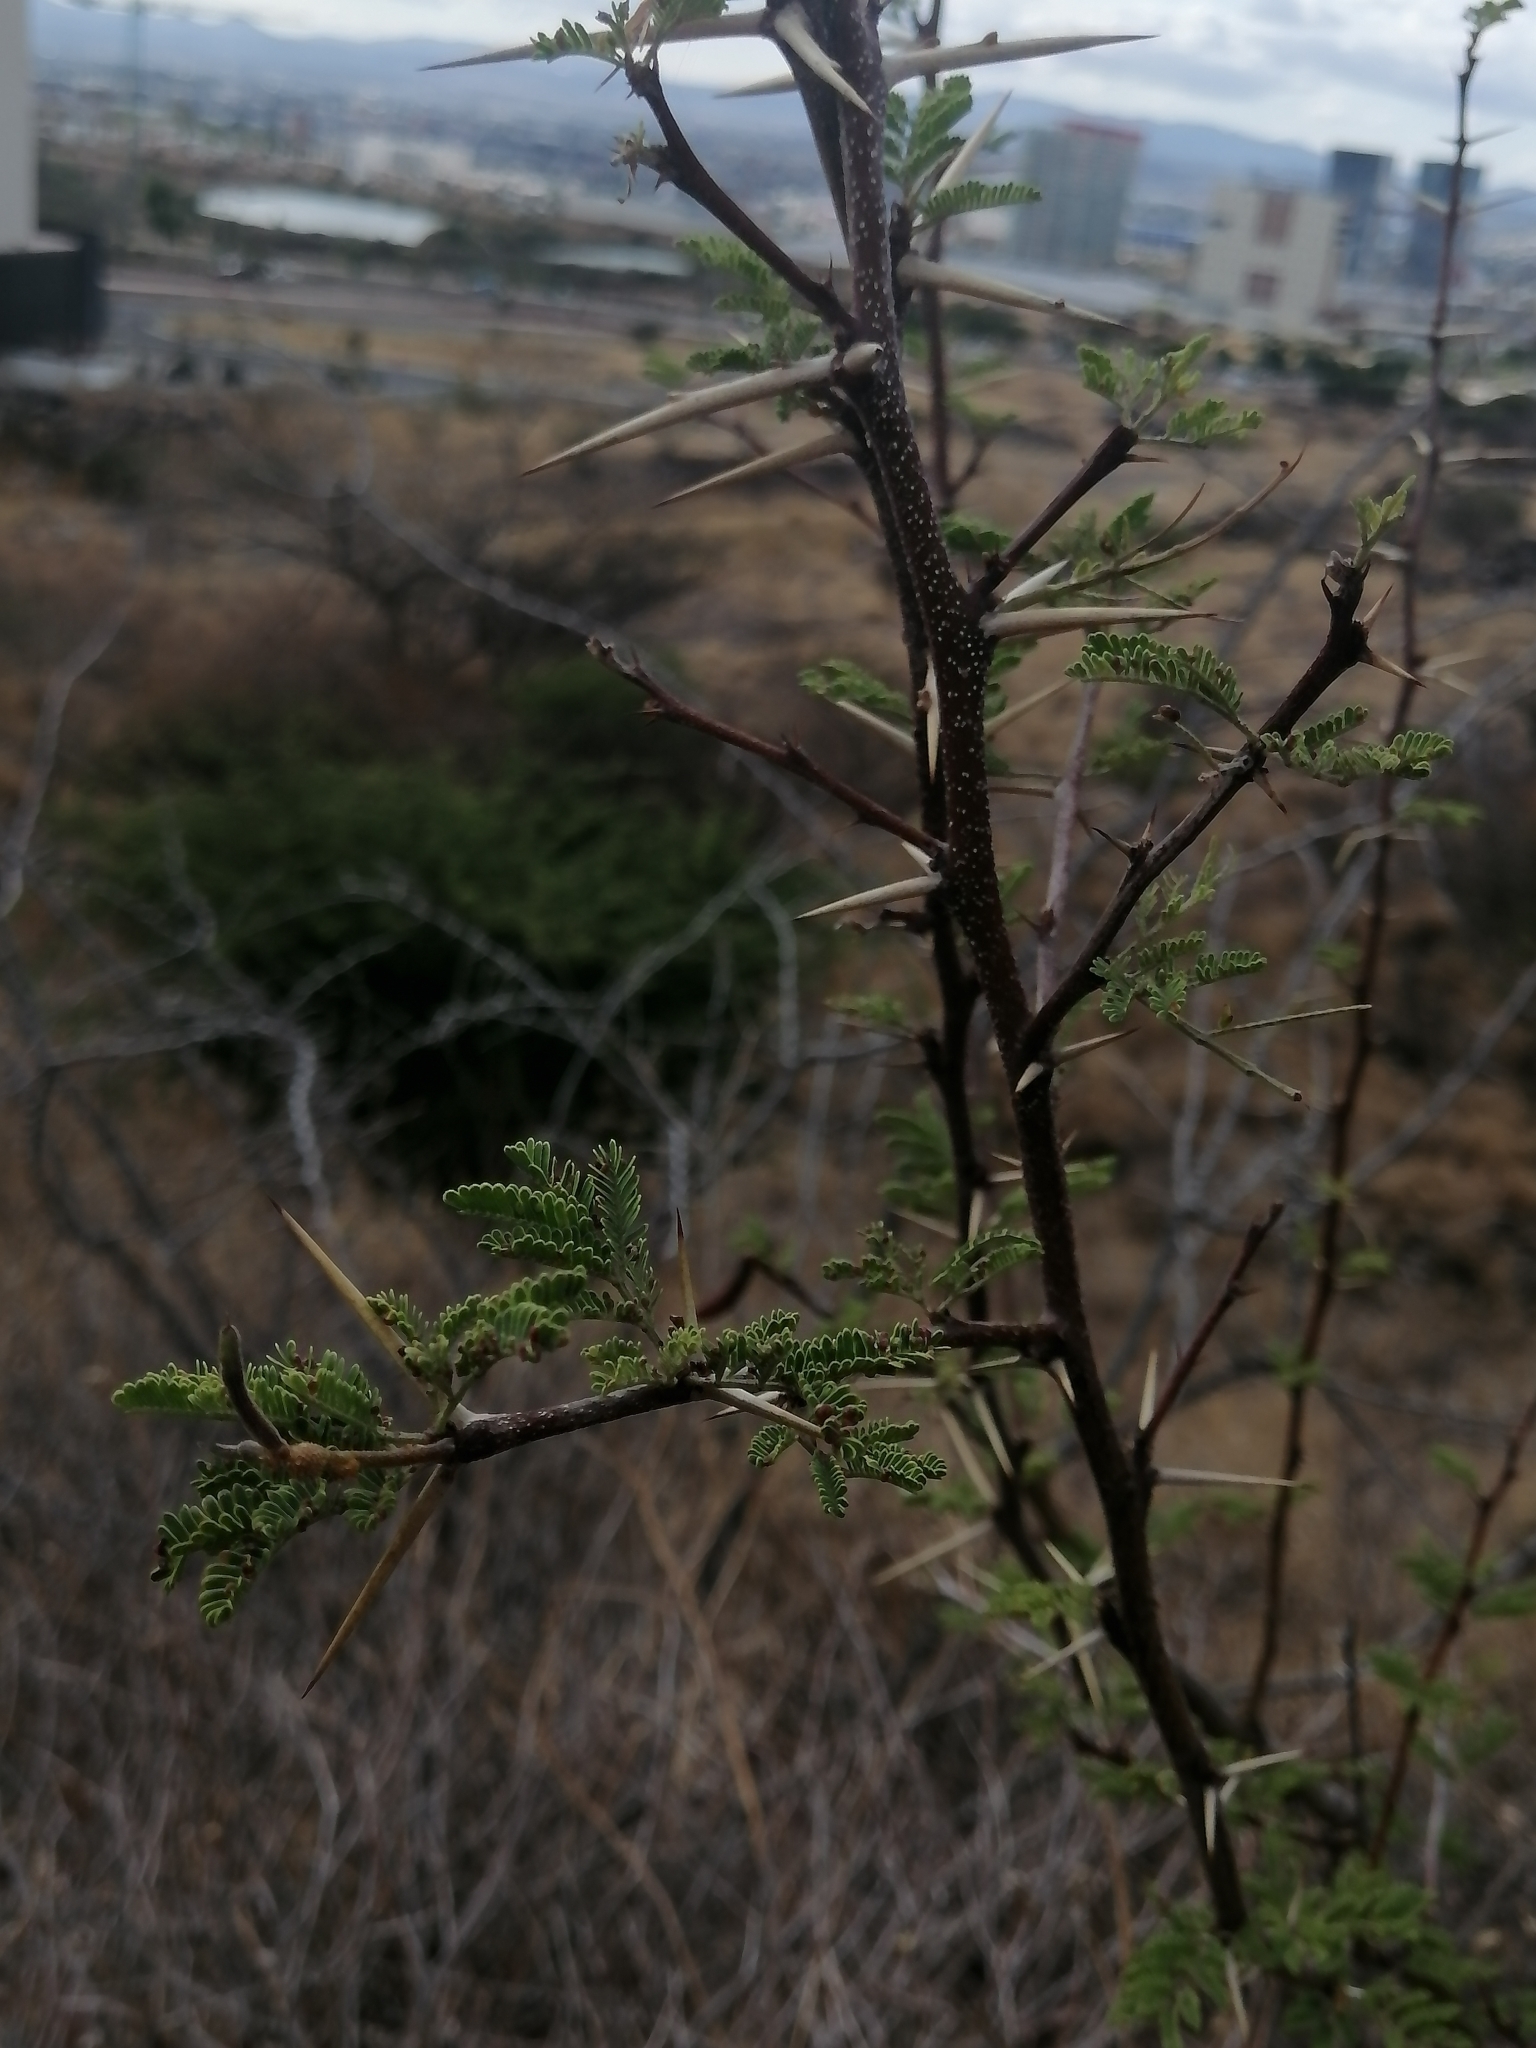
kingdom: Plantae
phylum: Tracheophyta
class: Magnoliopsida
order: Fabales
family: Fabaceae
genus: Vachellia
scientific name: Vachellia farnesiana
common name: Sweet acacia
